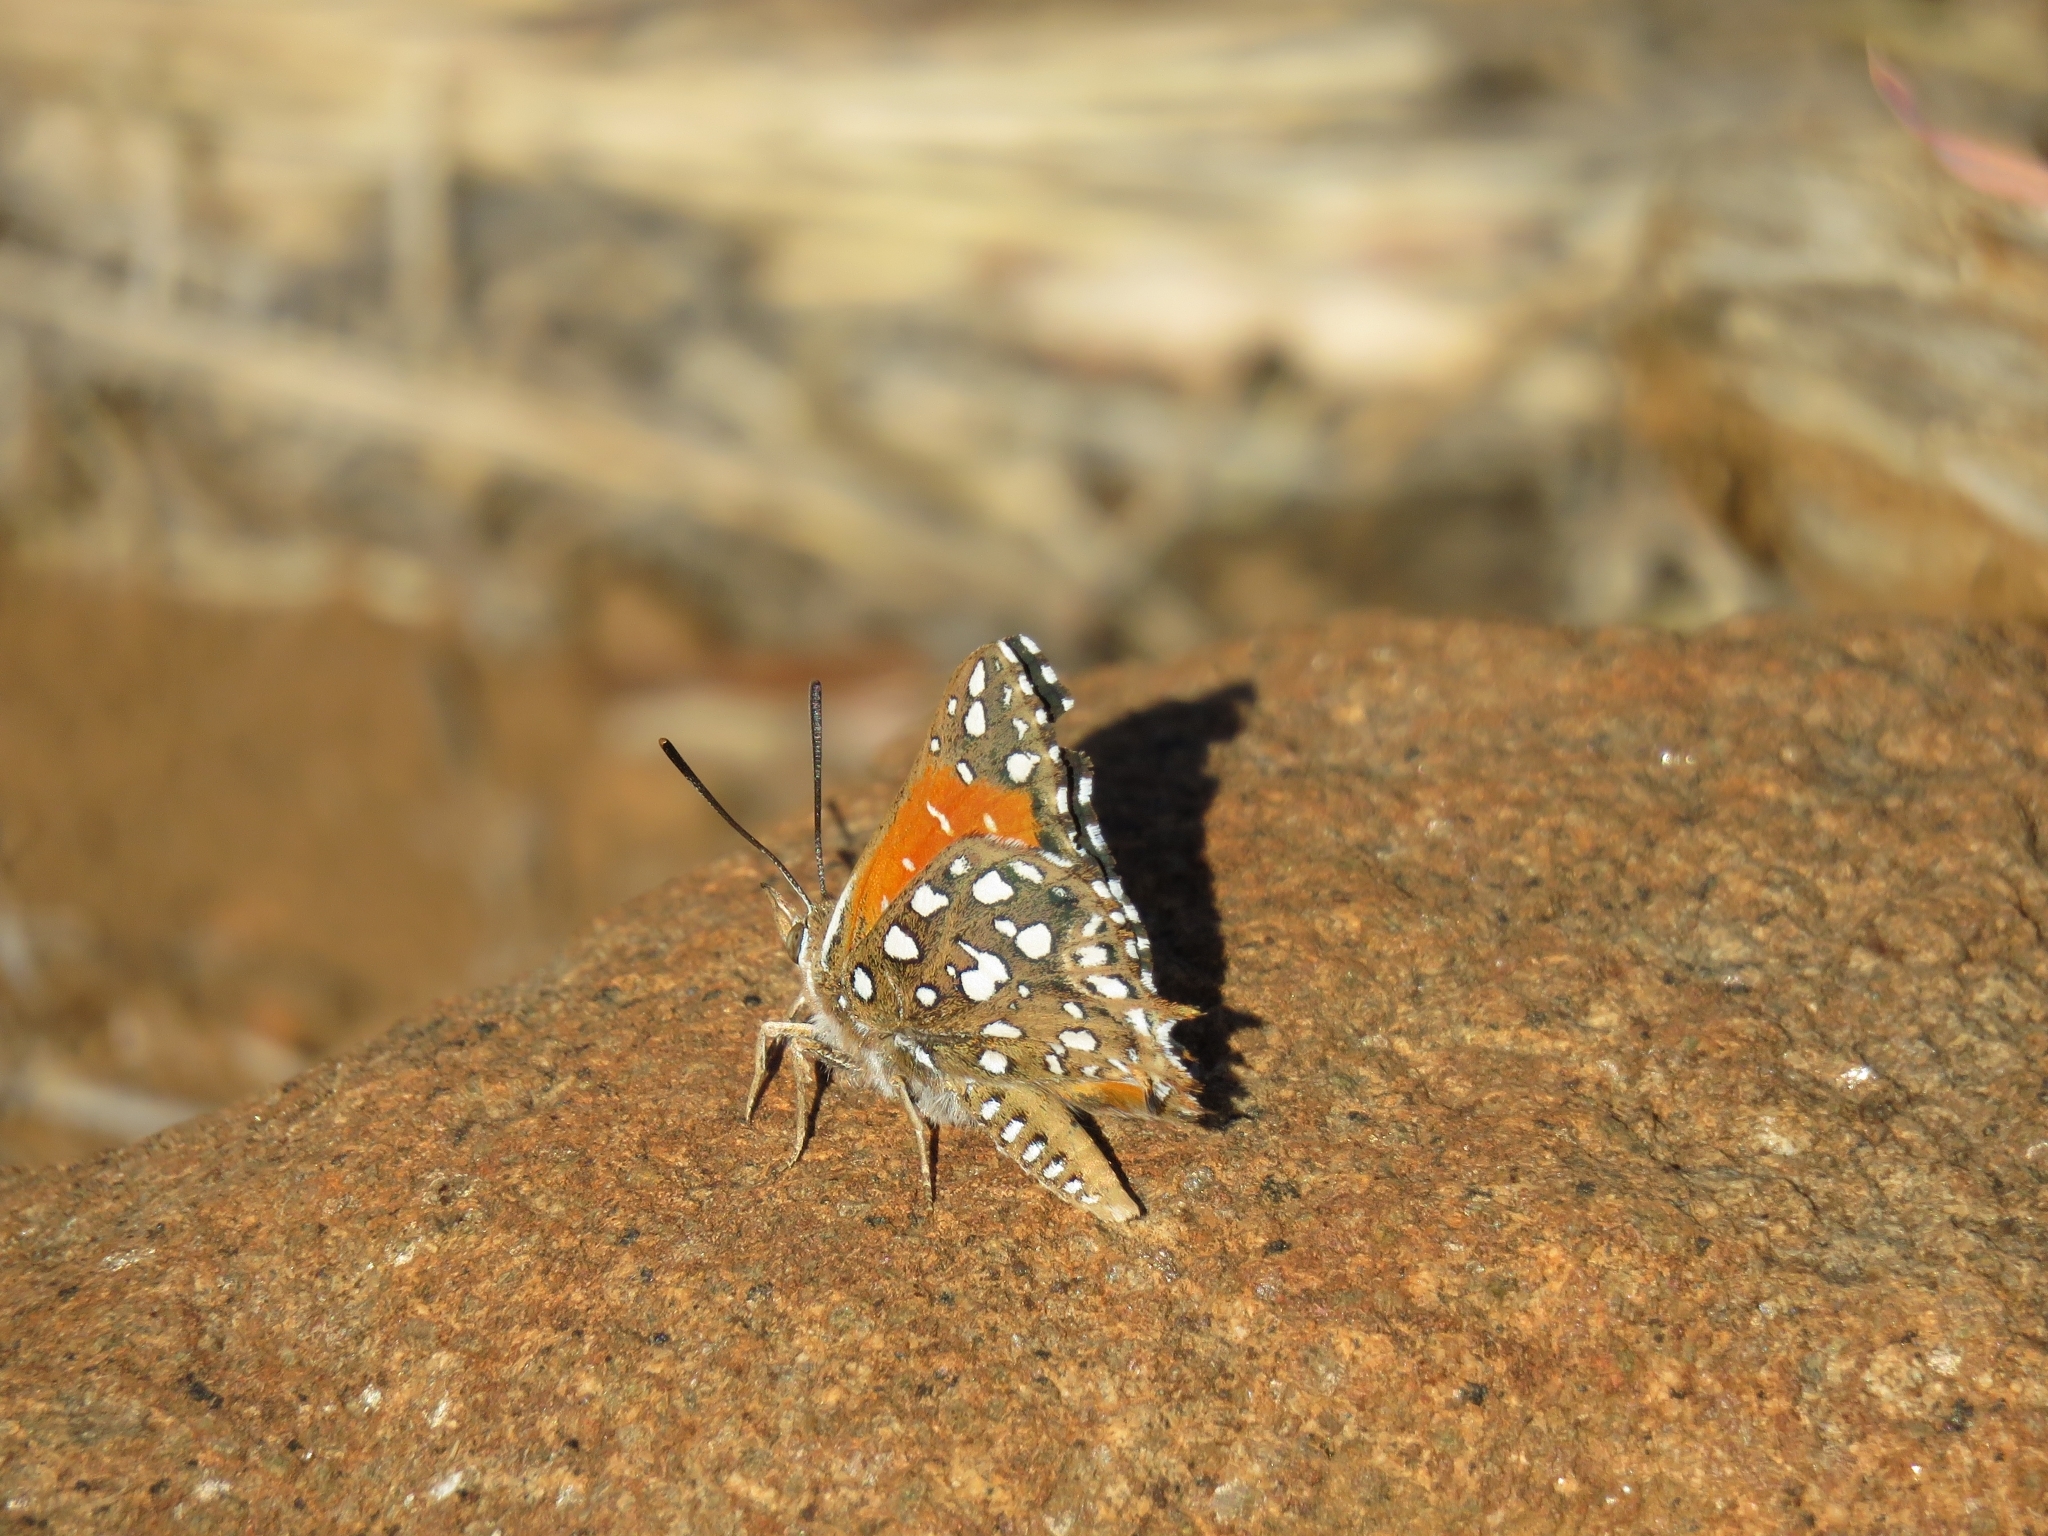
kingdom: Animalia
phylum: Arthropoda
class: Insecta
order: Lepidoptera
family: Lycaenidae
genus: Argyraspodes
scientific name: Argyraspodes argyraspis
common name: Warrior silver-spotted copper
